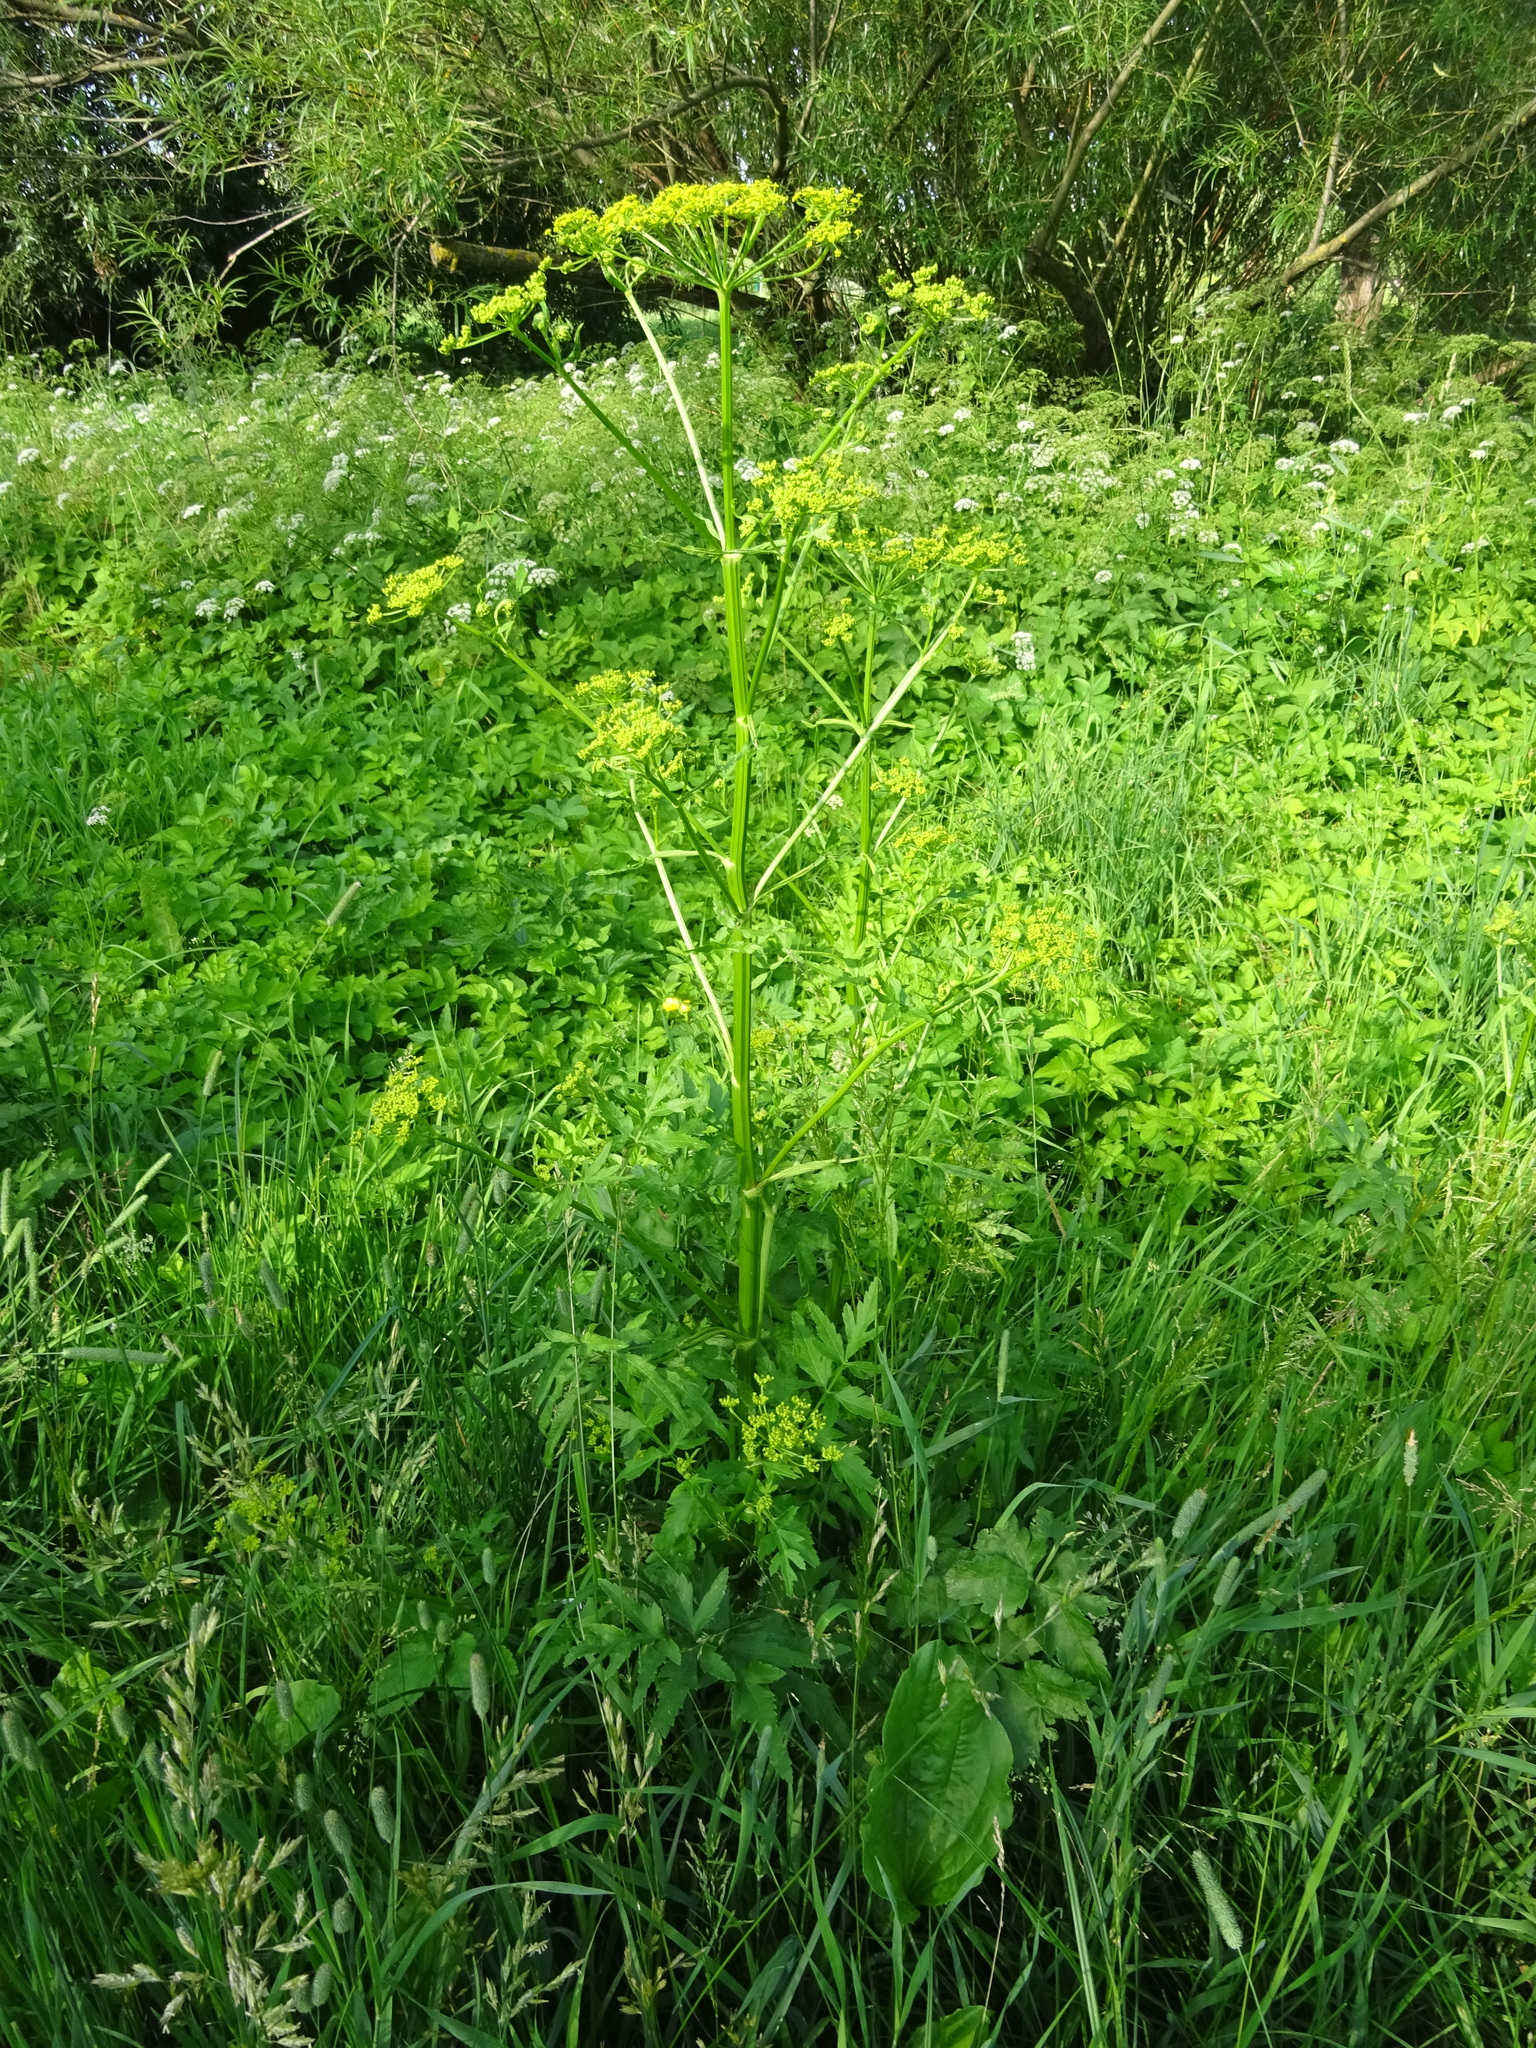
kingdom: Plantae
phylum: Tracheophyta
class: Magnoliopsida
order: Apiales
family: Apiaceae
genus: Pastinaca
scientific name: Pastinaca sativa
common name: Wild parsnip
